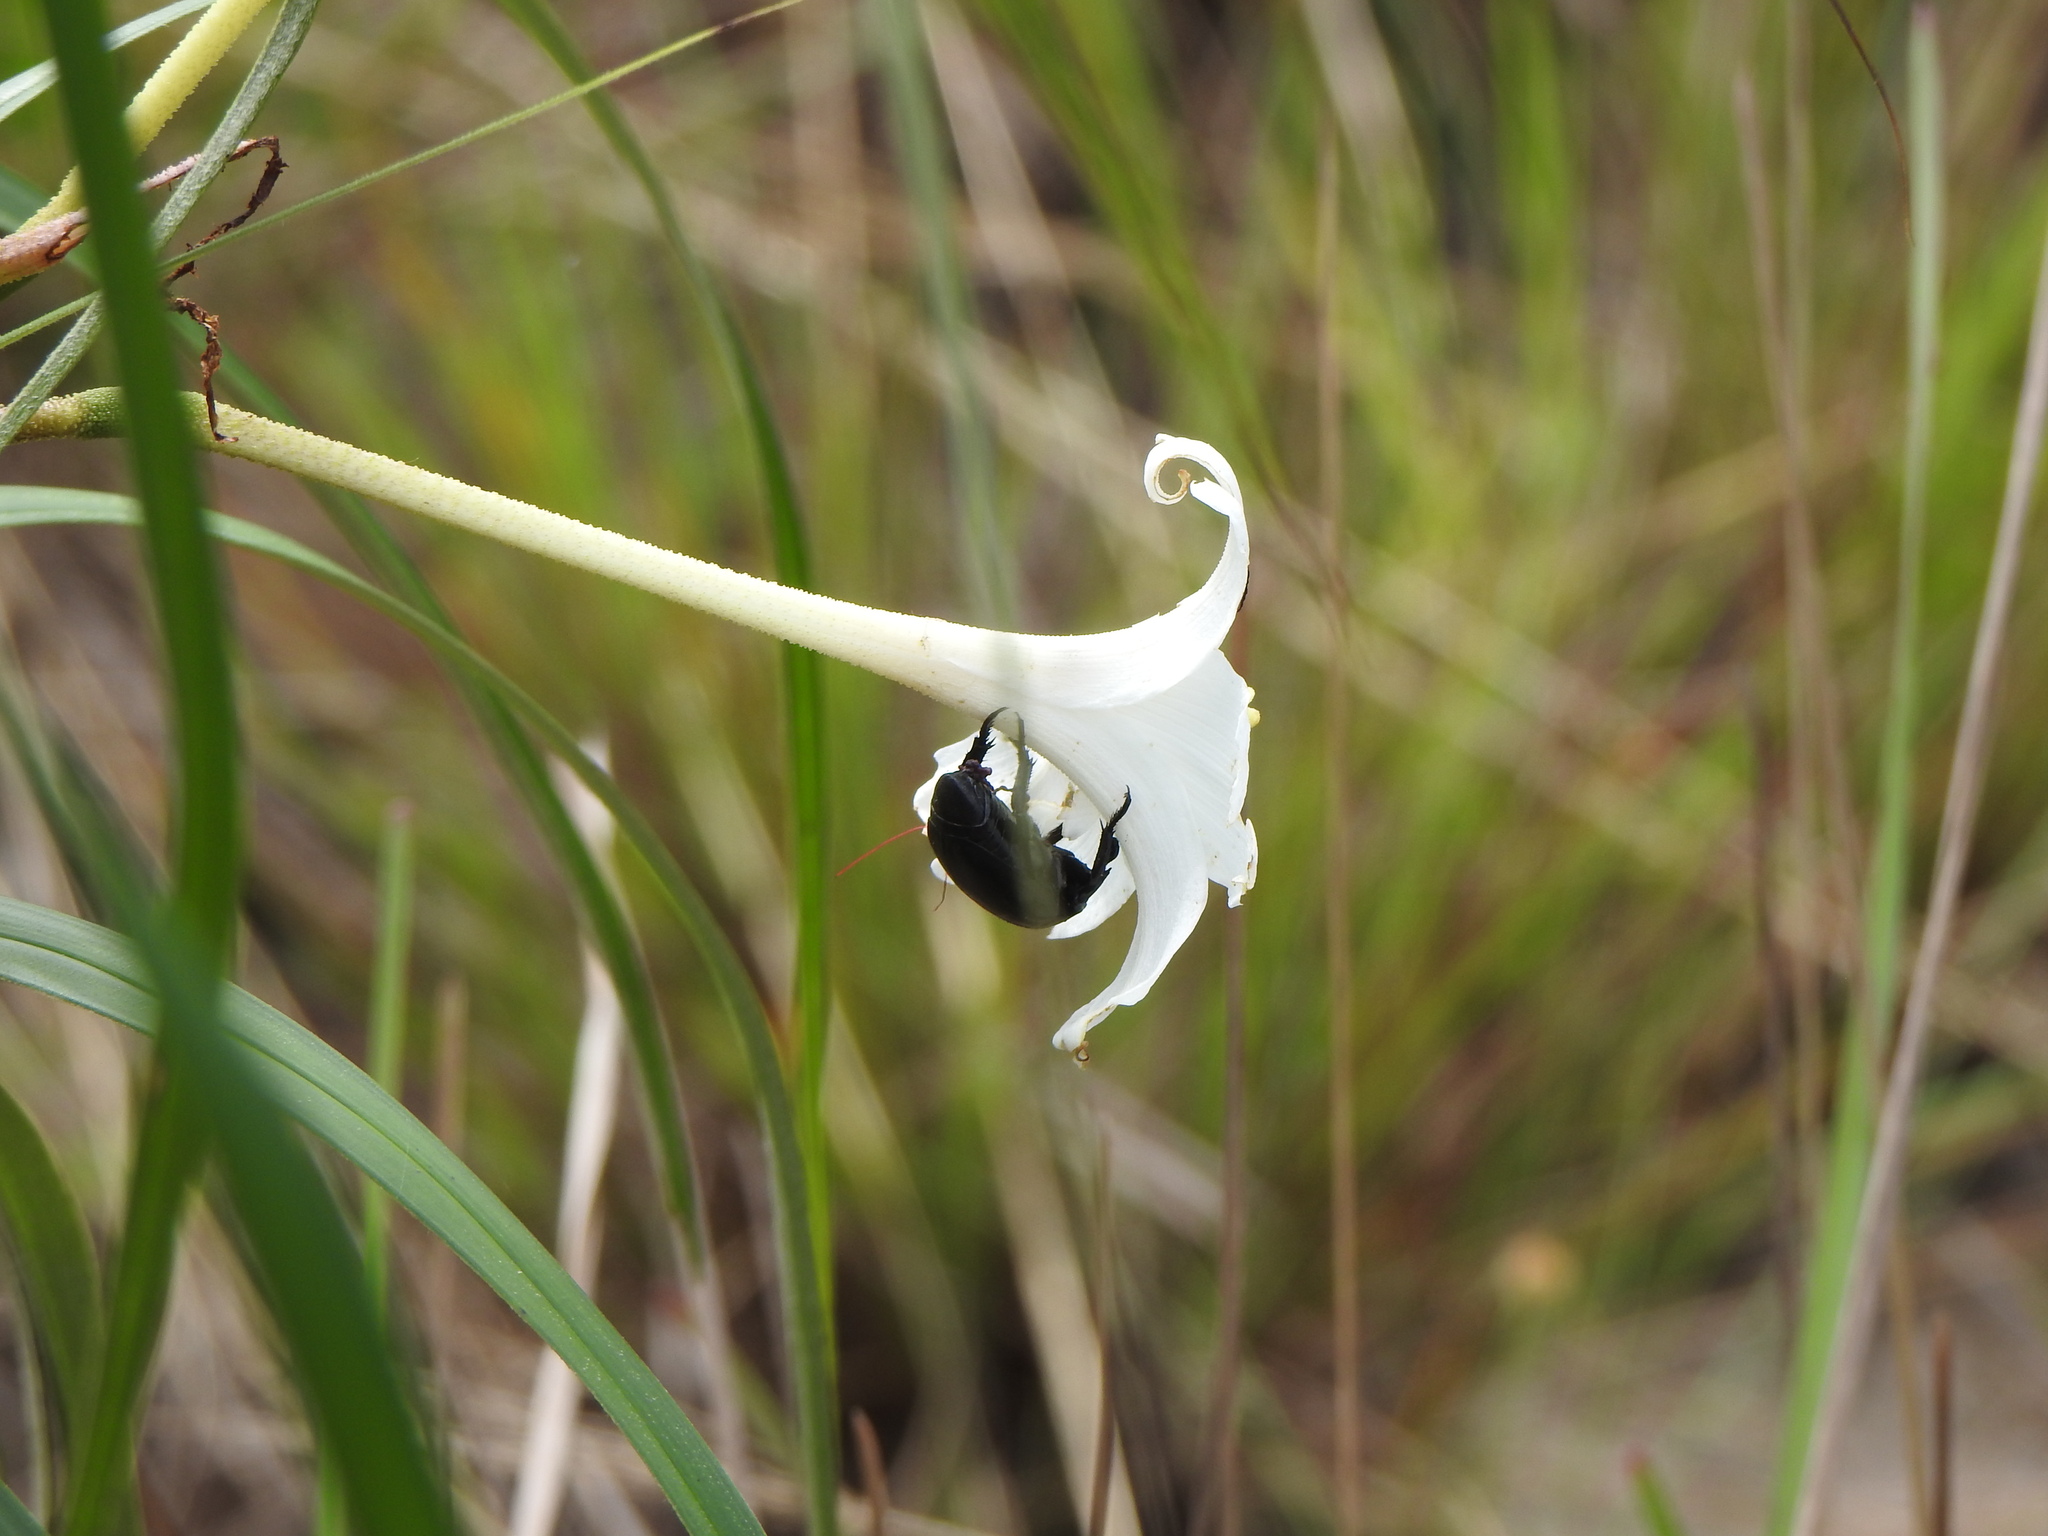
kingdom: Plantae
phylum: Tracheophyta
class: Liliopsida
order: Pandanales
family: Velloziaceae
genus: Vellozia
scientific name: Vellozia tubiflora
